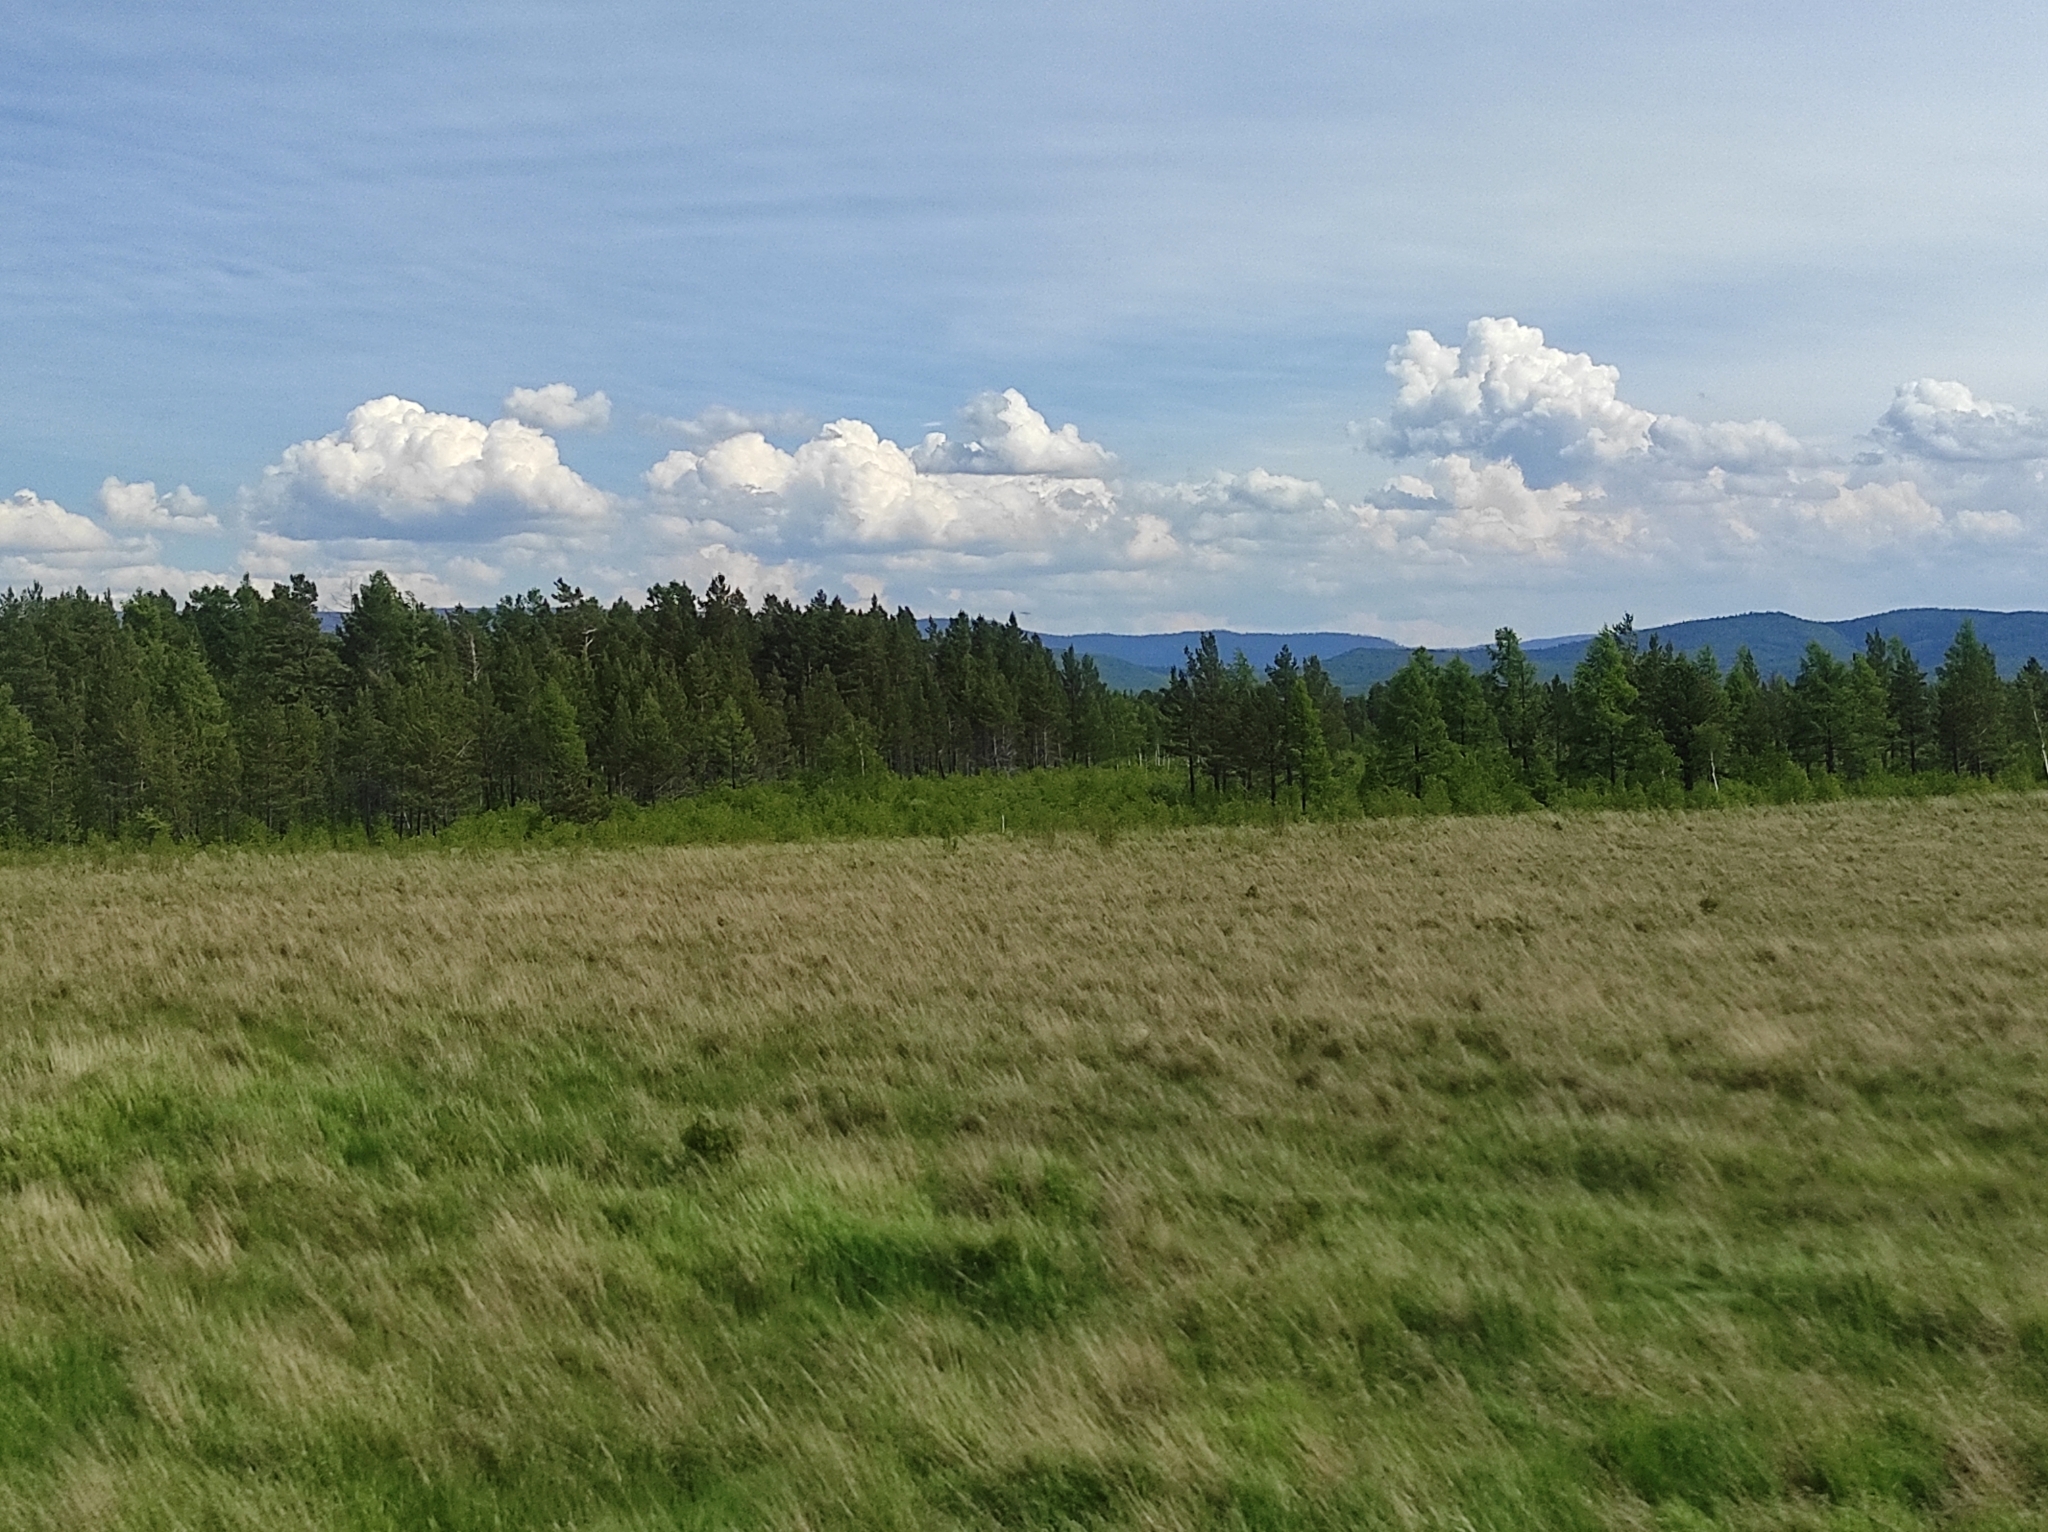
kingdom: Plantae
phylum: Tracheophyta
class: Pinopsida
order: Pinales
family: Pinaceae
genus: Pinus
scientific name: Pinus sylvestris
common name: Scots pine
